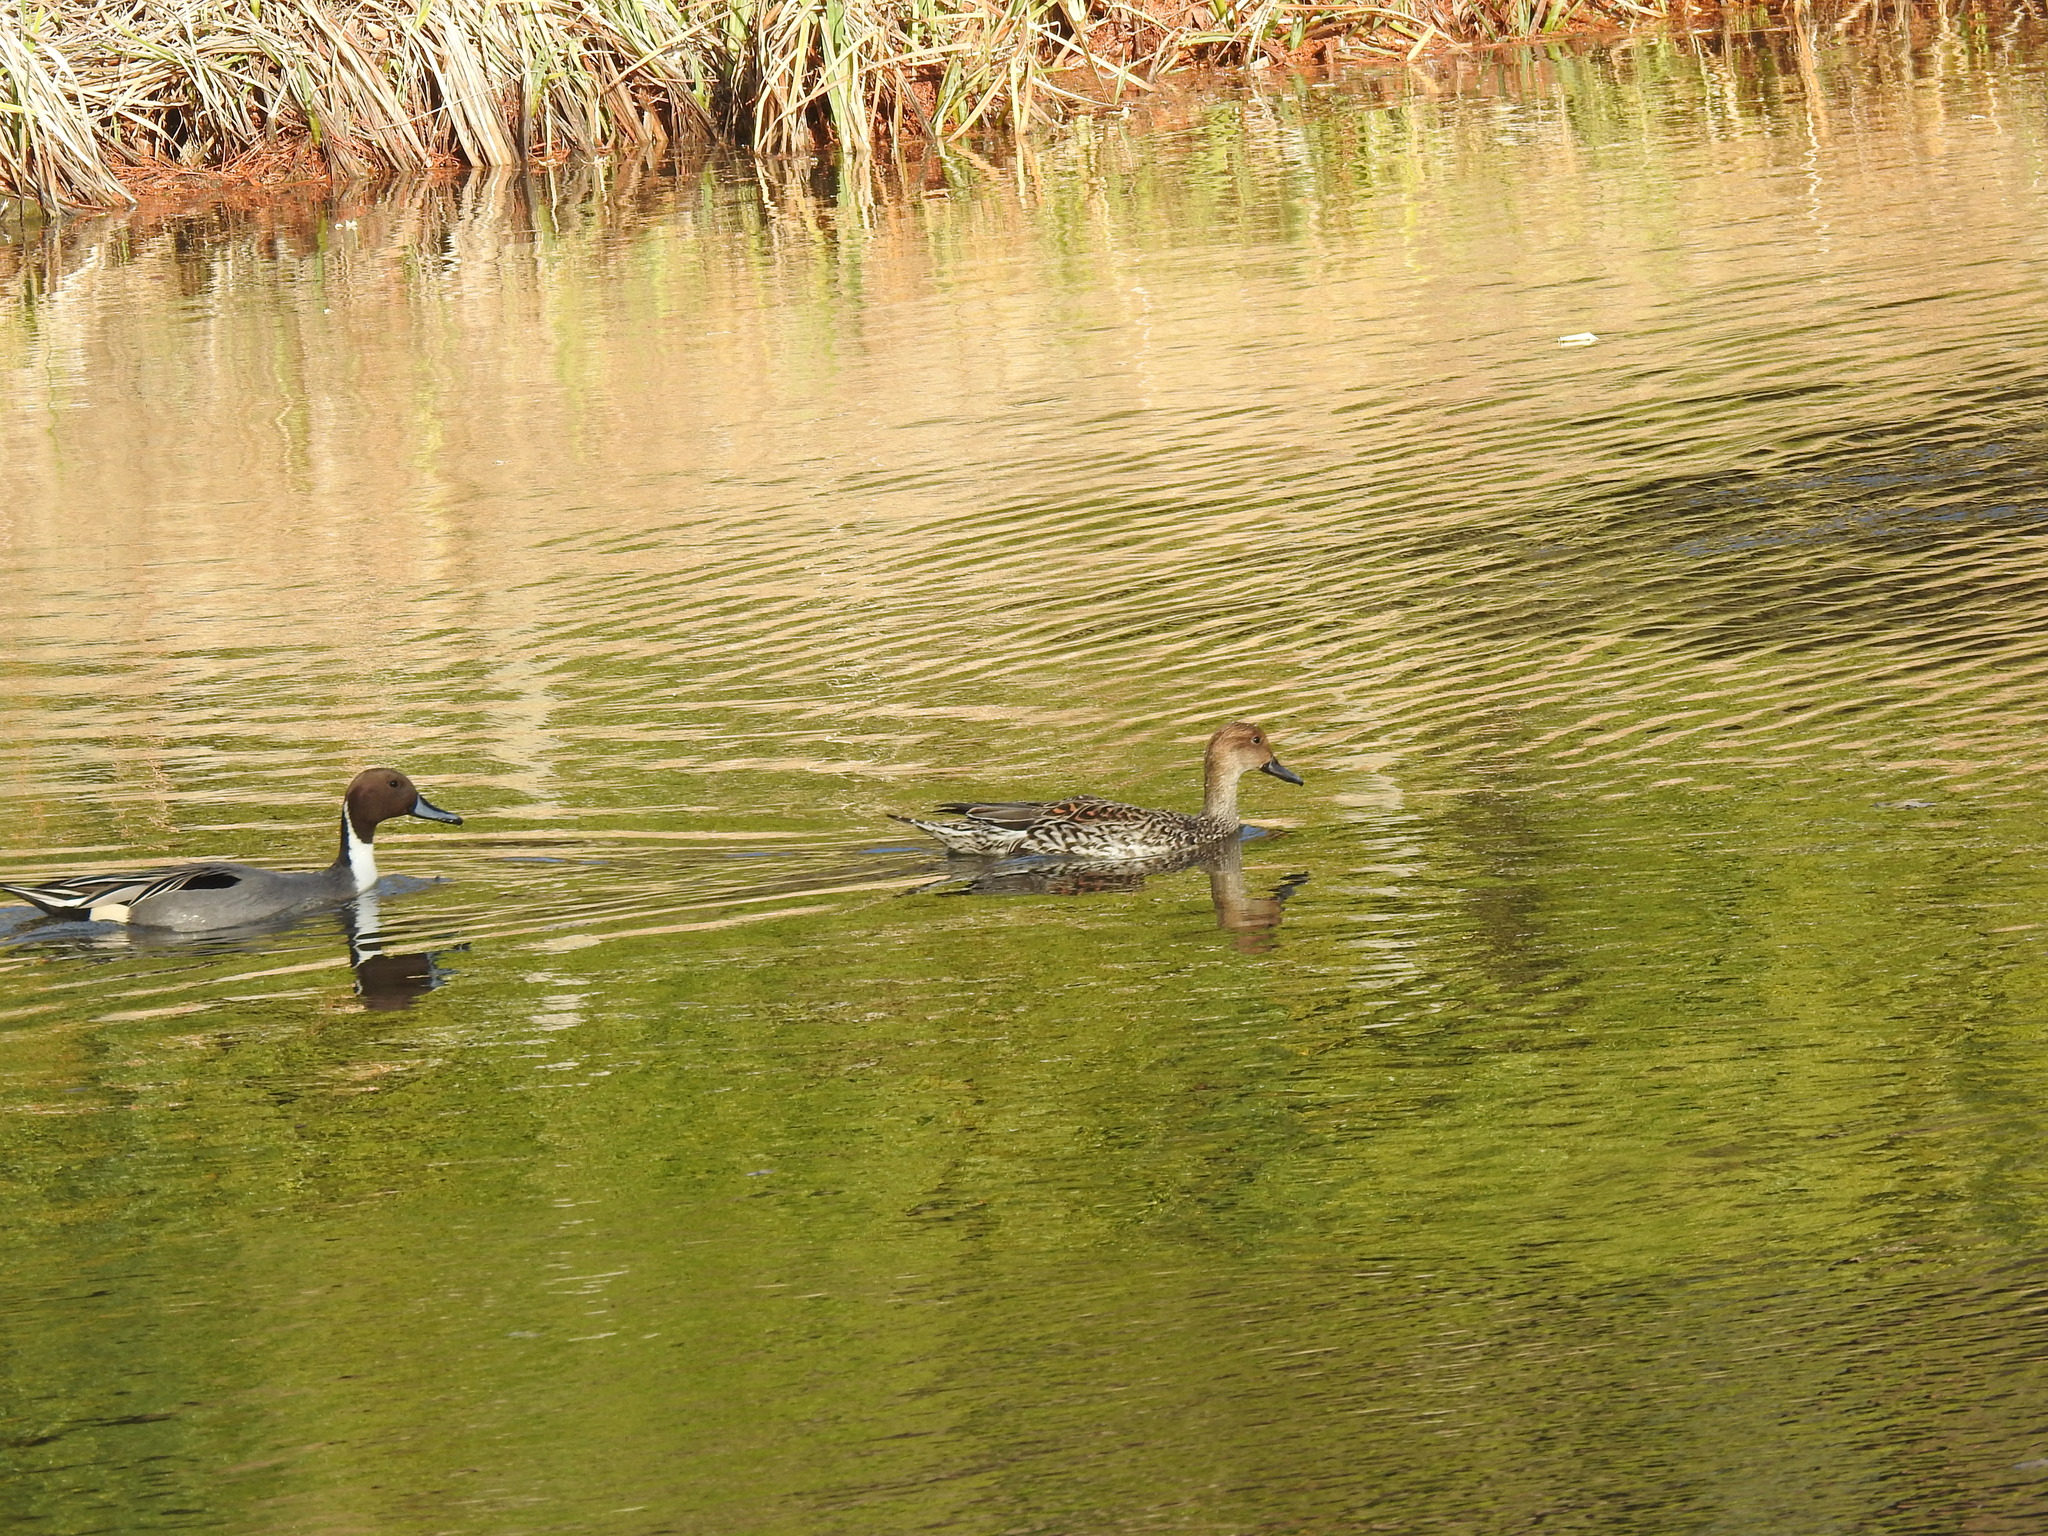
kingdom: Animalia
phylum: Chordata
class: Aves
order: Anseriformes
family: Anatidae
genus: Anas
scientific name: Anas acuta
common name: Northern pintail
